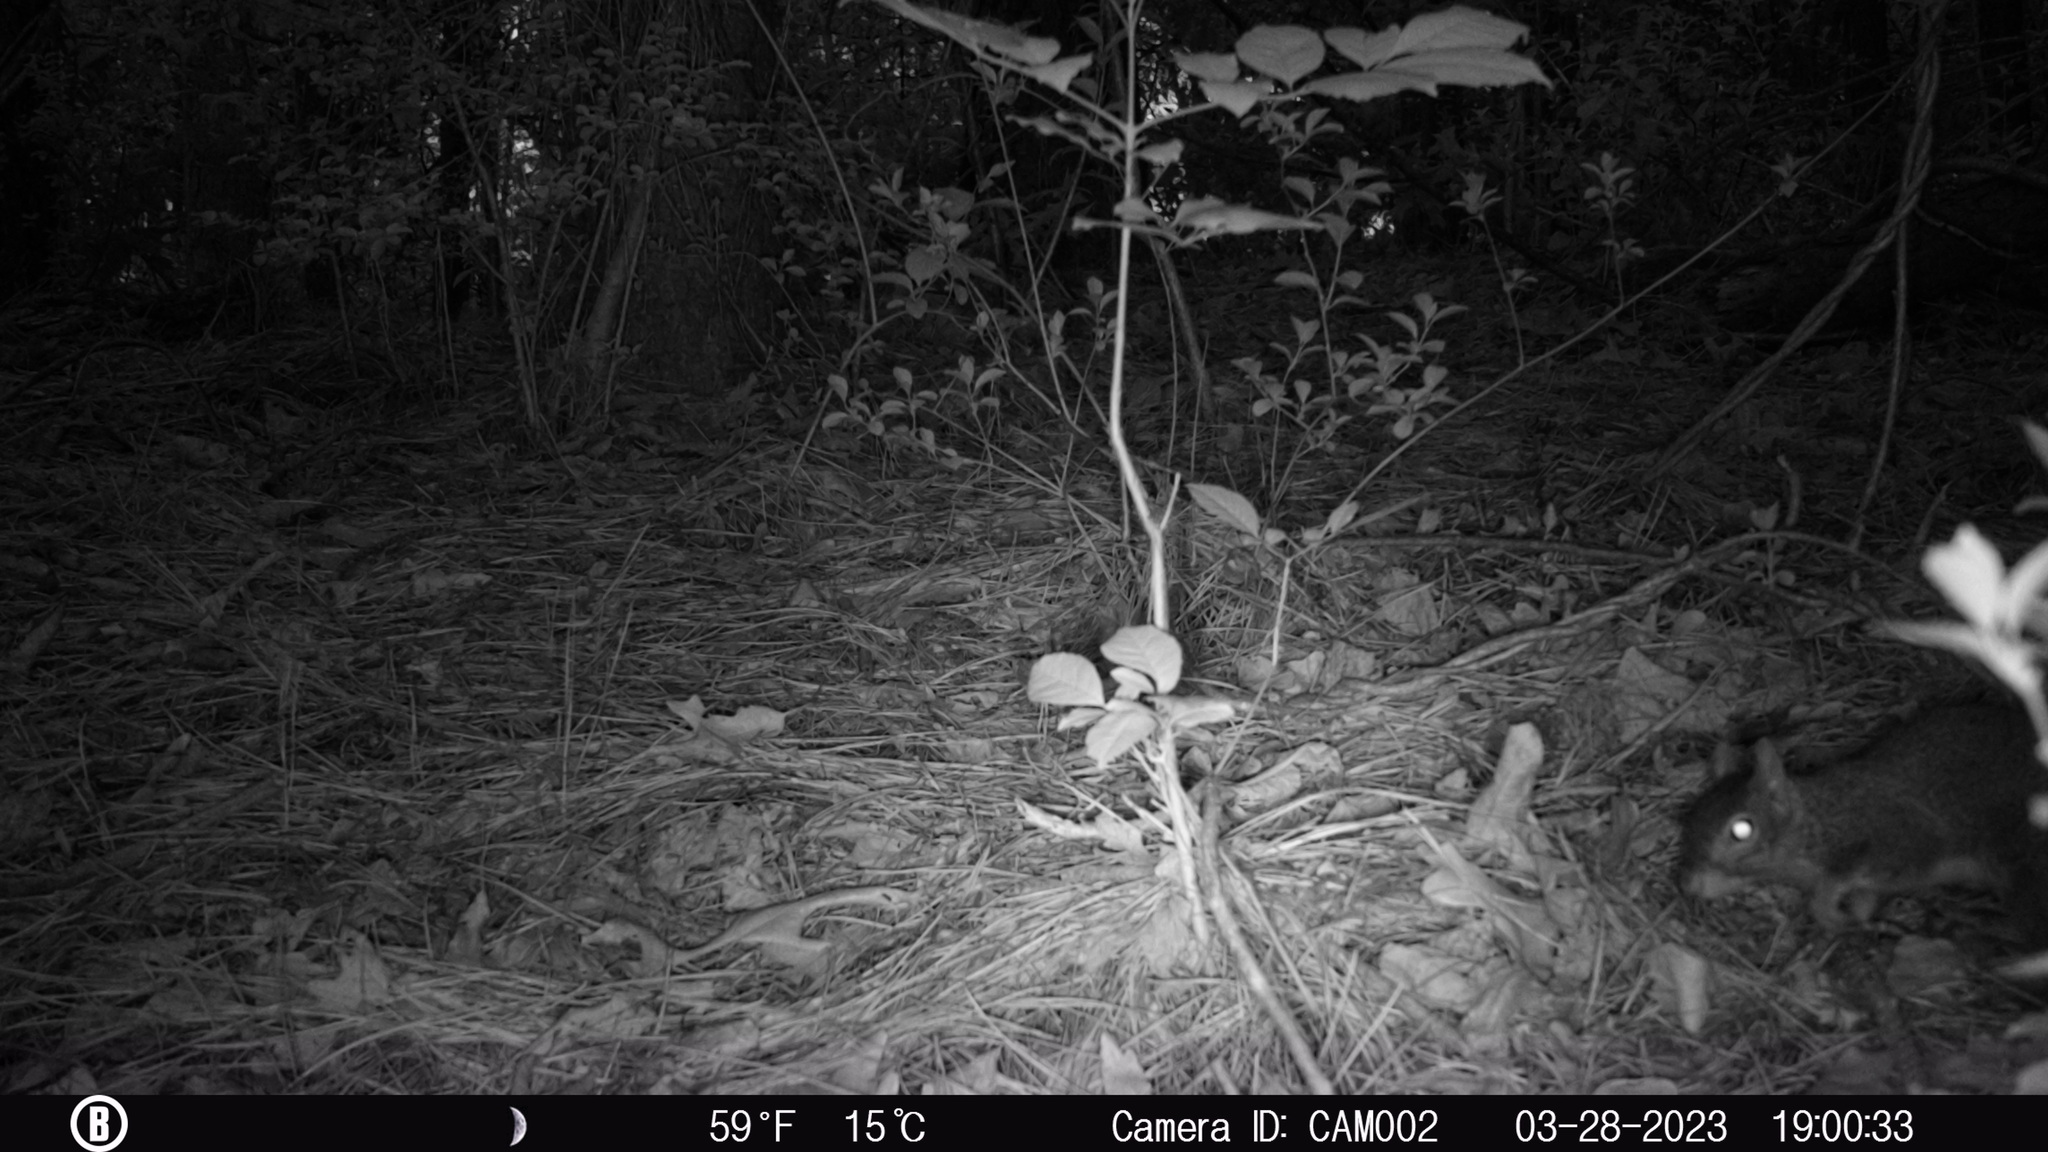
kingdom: Animalia
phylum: Chordata
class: Mammalia
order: Rodentia
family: Sciuridae
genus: Sciurus
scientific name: Sciurus carolinensis
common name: Eastern gray squirrel
